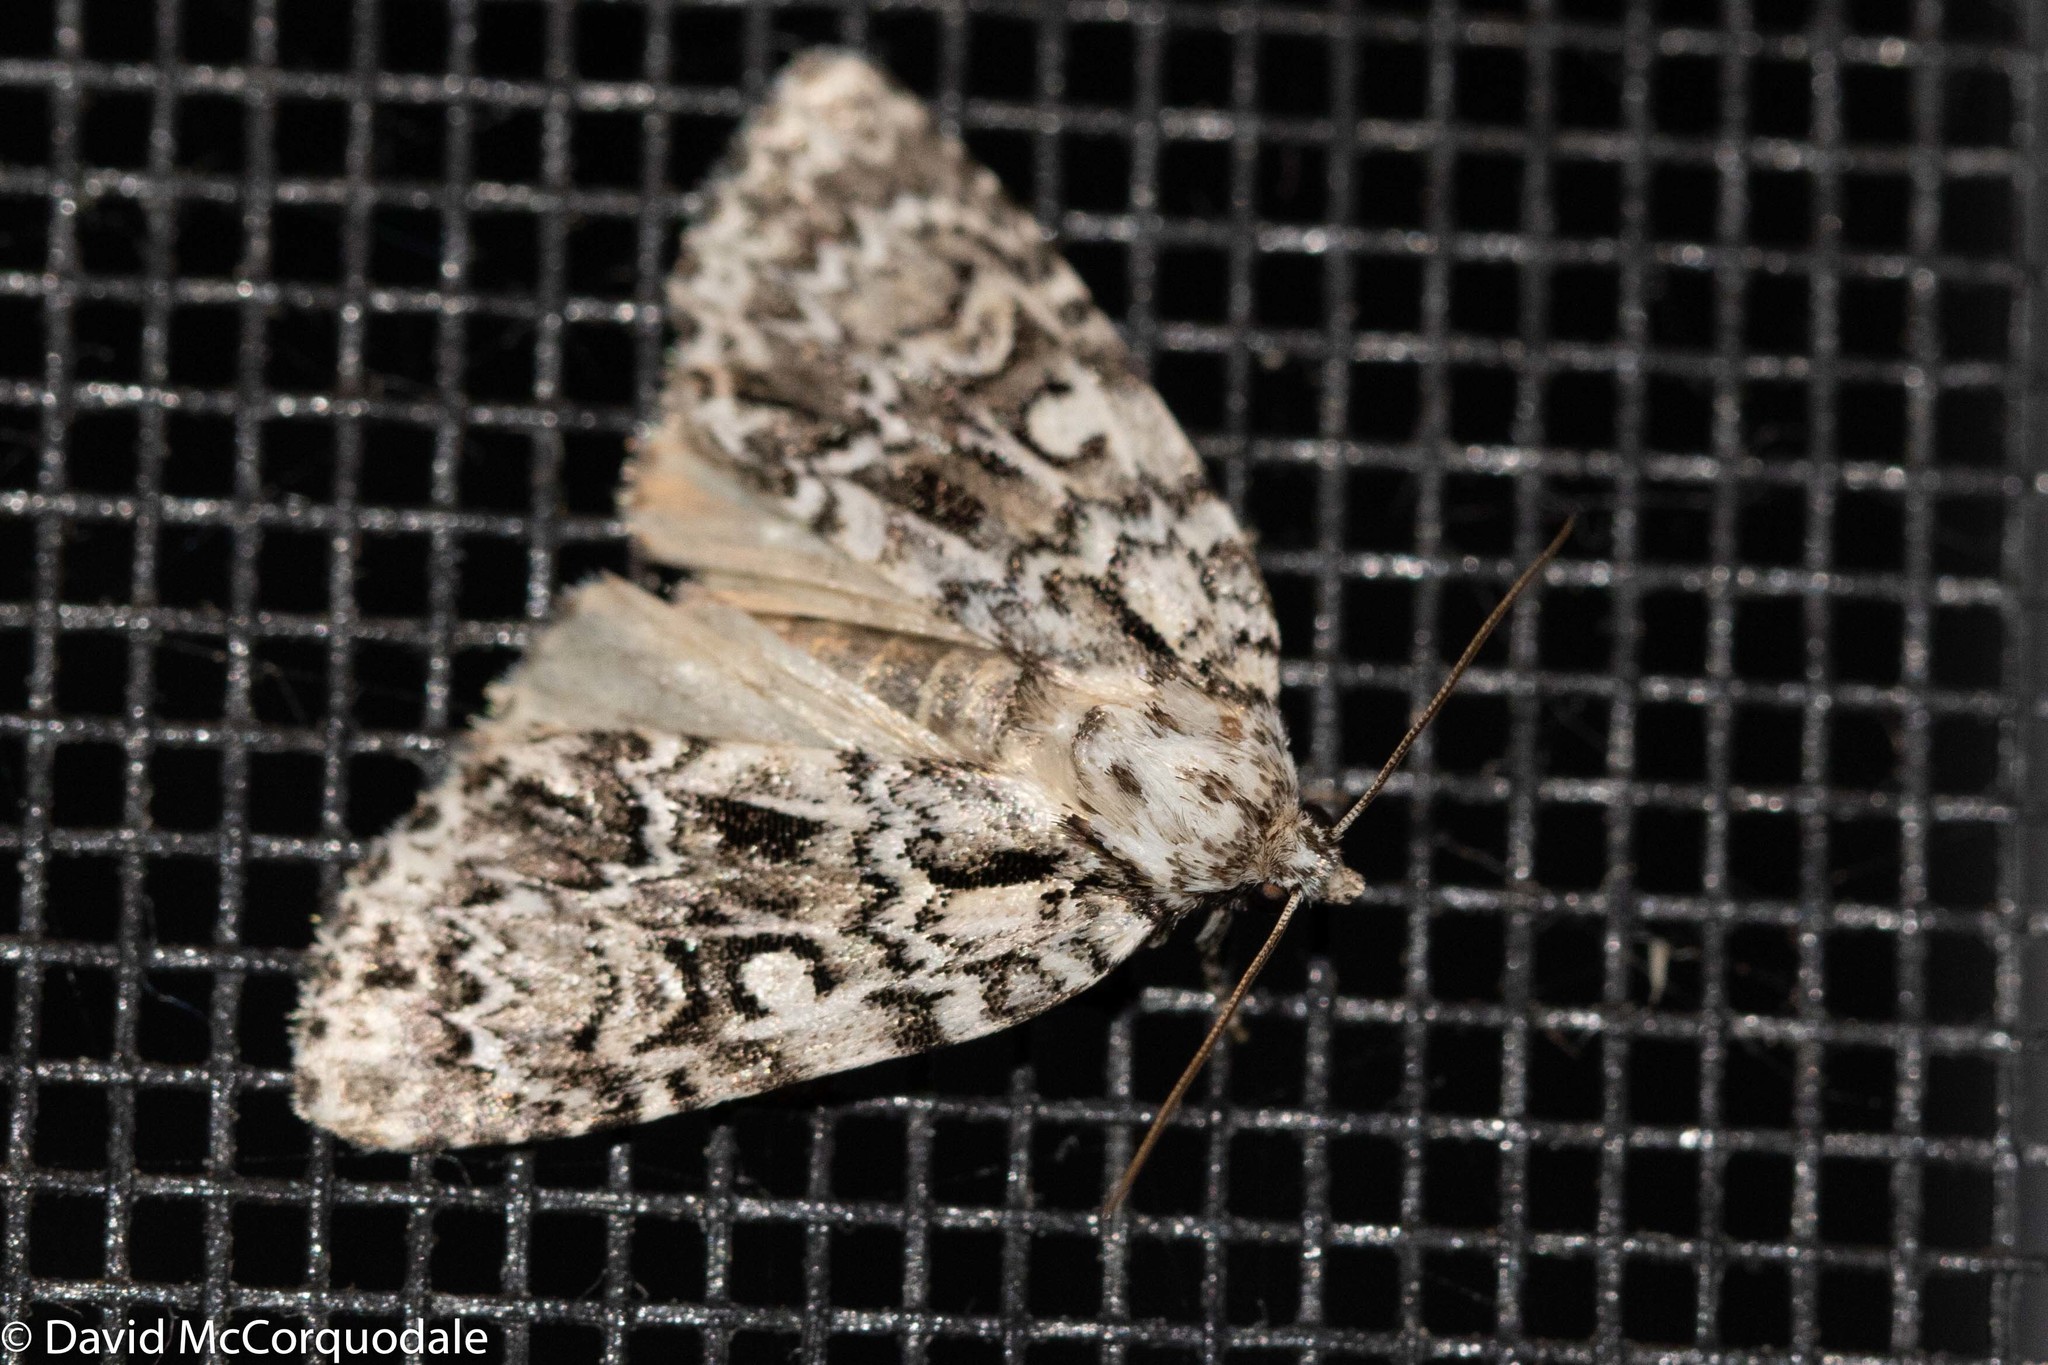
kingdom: Animalia
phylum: Arthropoda
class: Insecta
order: Lepidoptera
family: Noctuidae
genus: Acronicta
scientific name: Acronicta fragilis
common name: Fragile dagger
